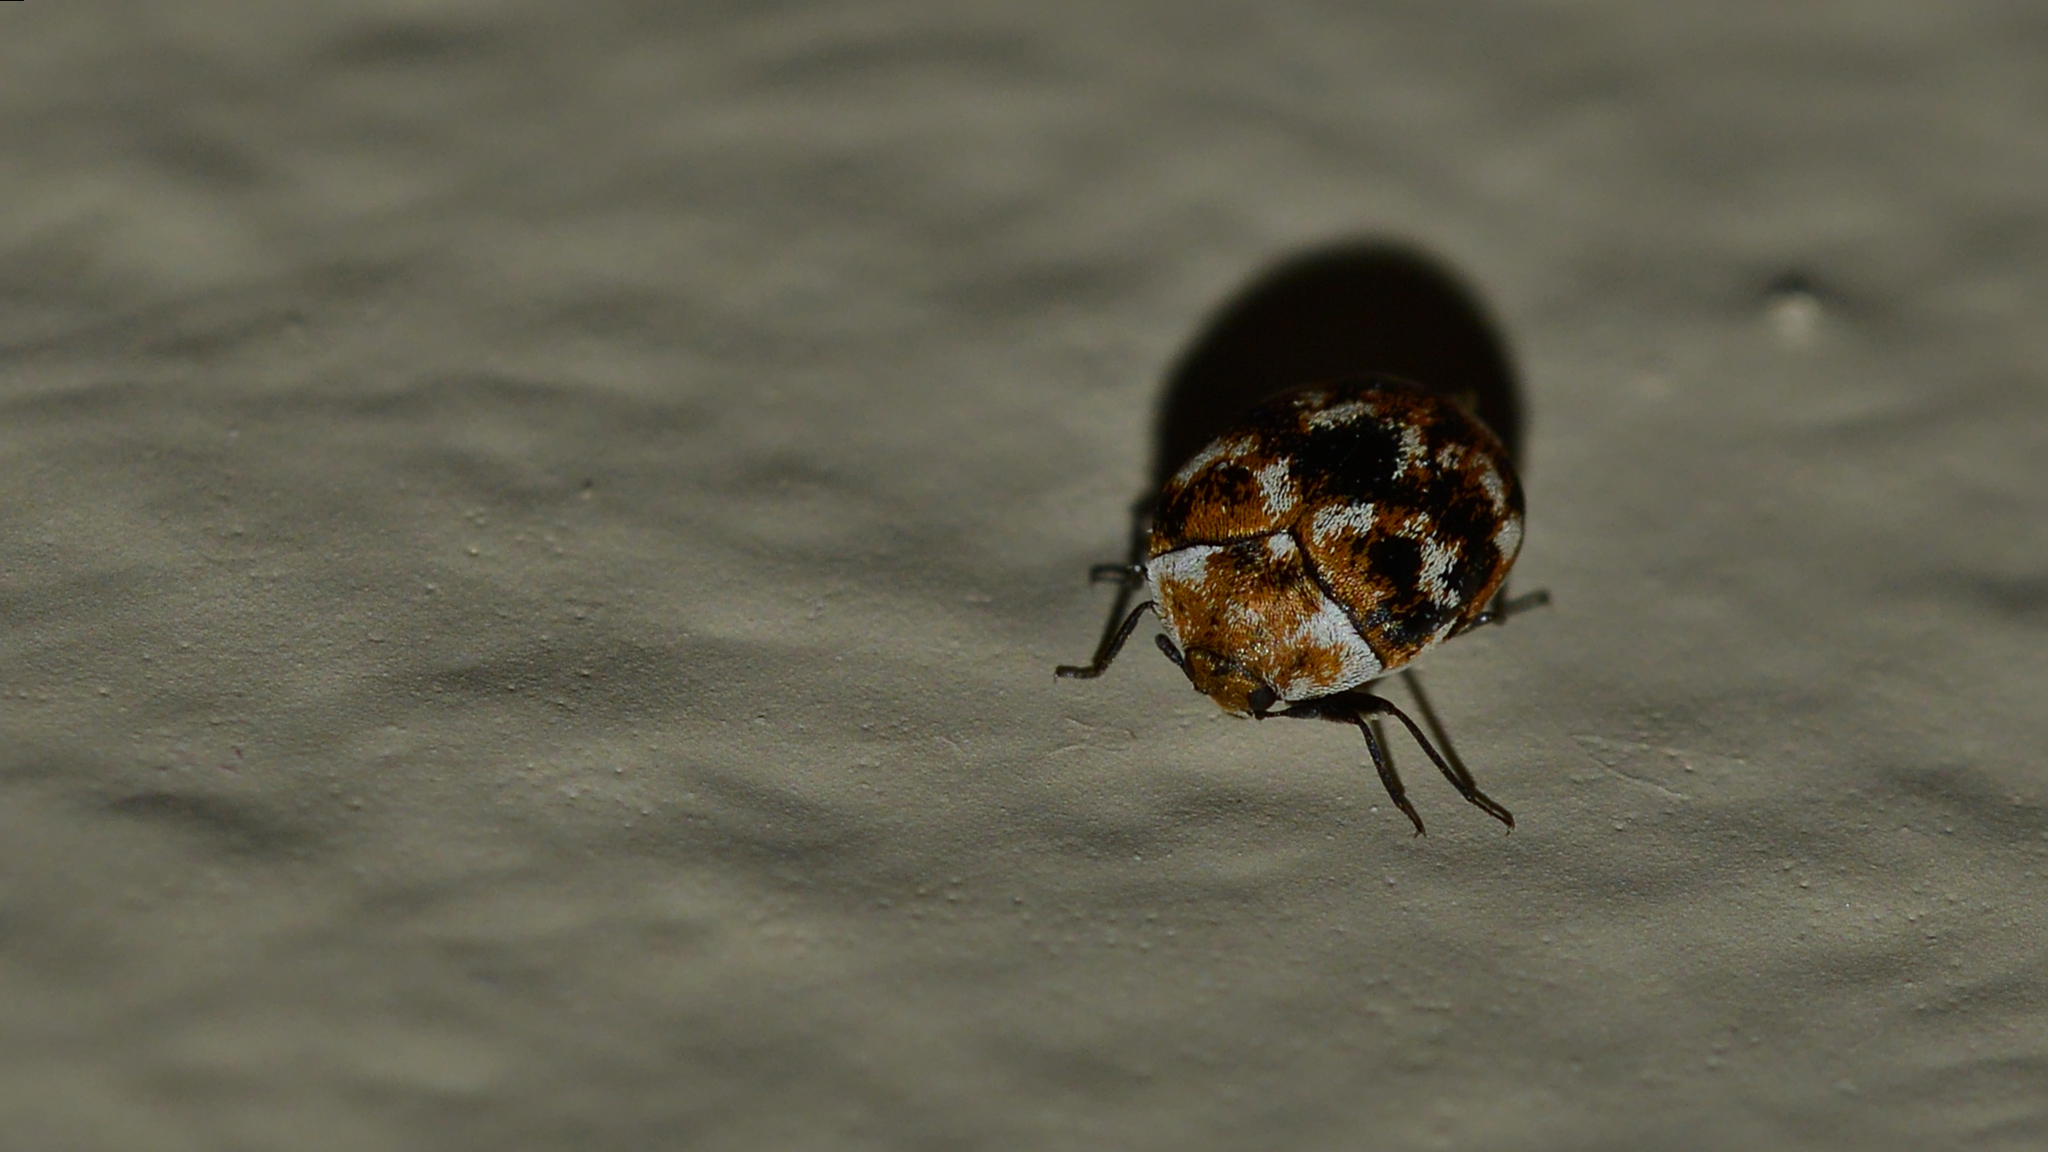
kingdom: Animalia
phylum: Arthropoda
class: Insecta
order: Coleoptera
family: Dermestidae
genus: Anthrenus
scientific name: Anthrenus verbasci
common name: Varied carpet beetle
